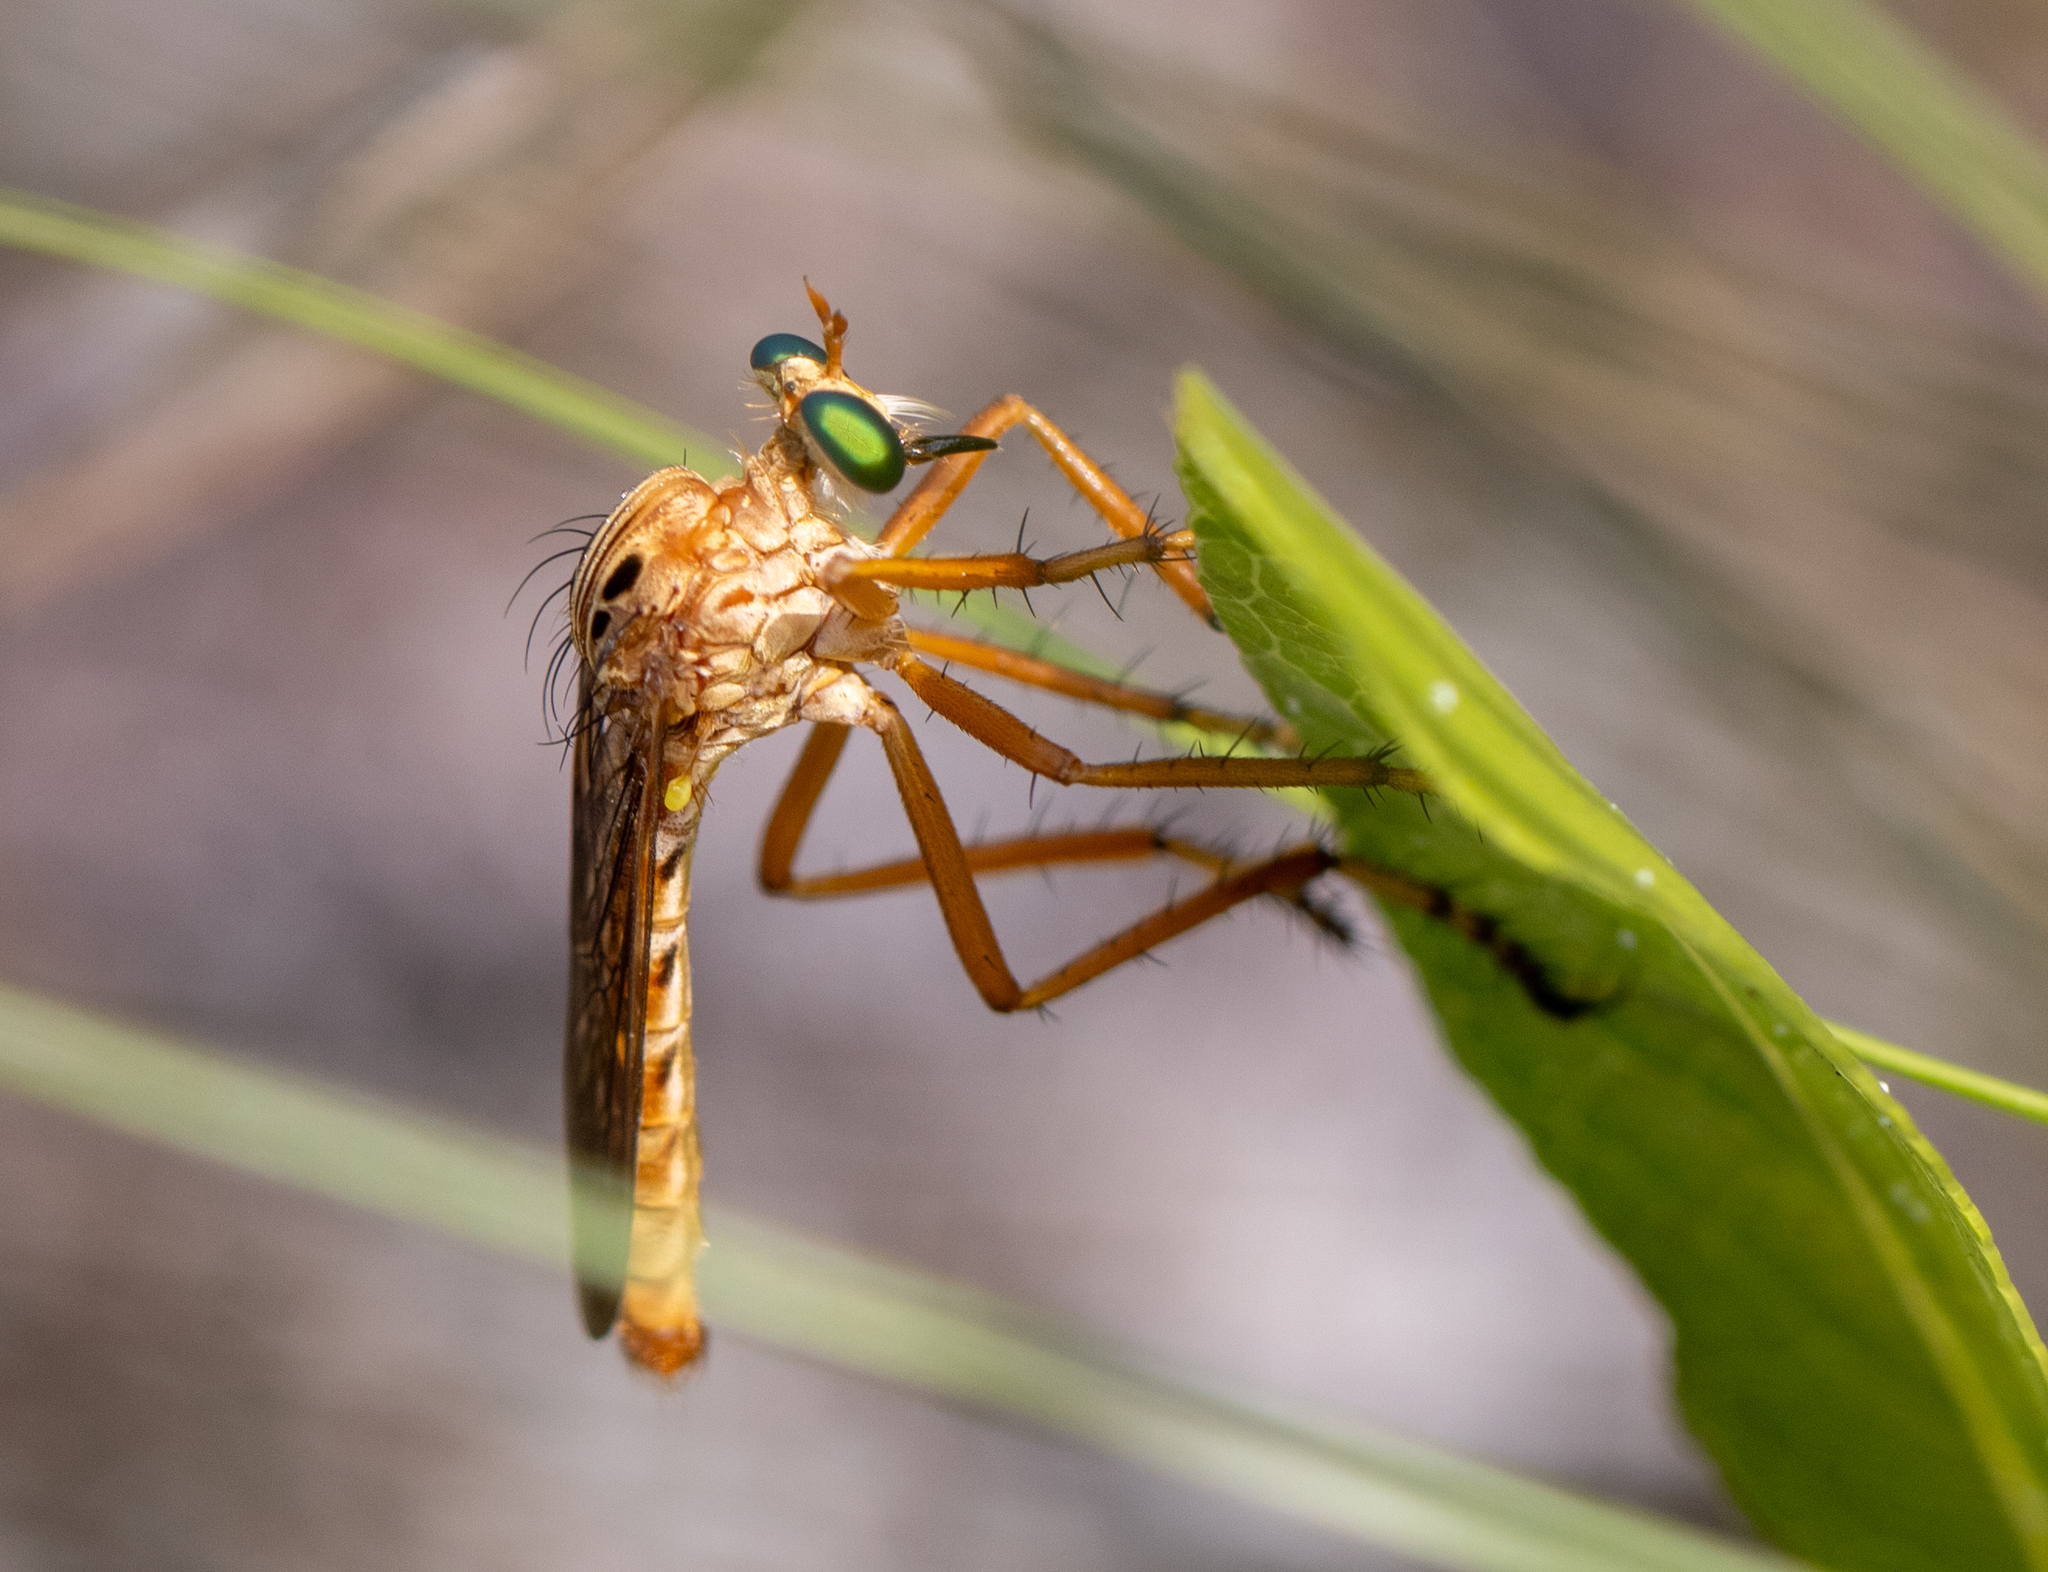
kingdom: Animalia
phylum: Arthropoda
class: Insecta
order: Diptera
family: Asilidae
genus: Diogmites
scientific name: Diogmites esuriens
